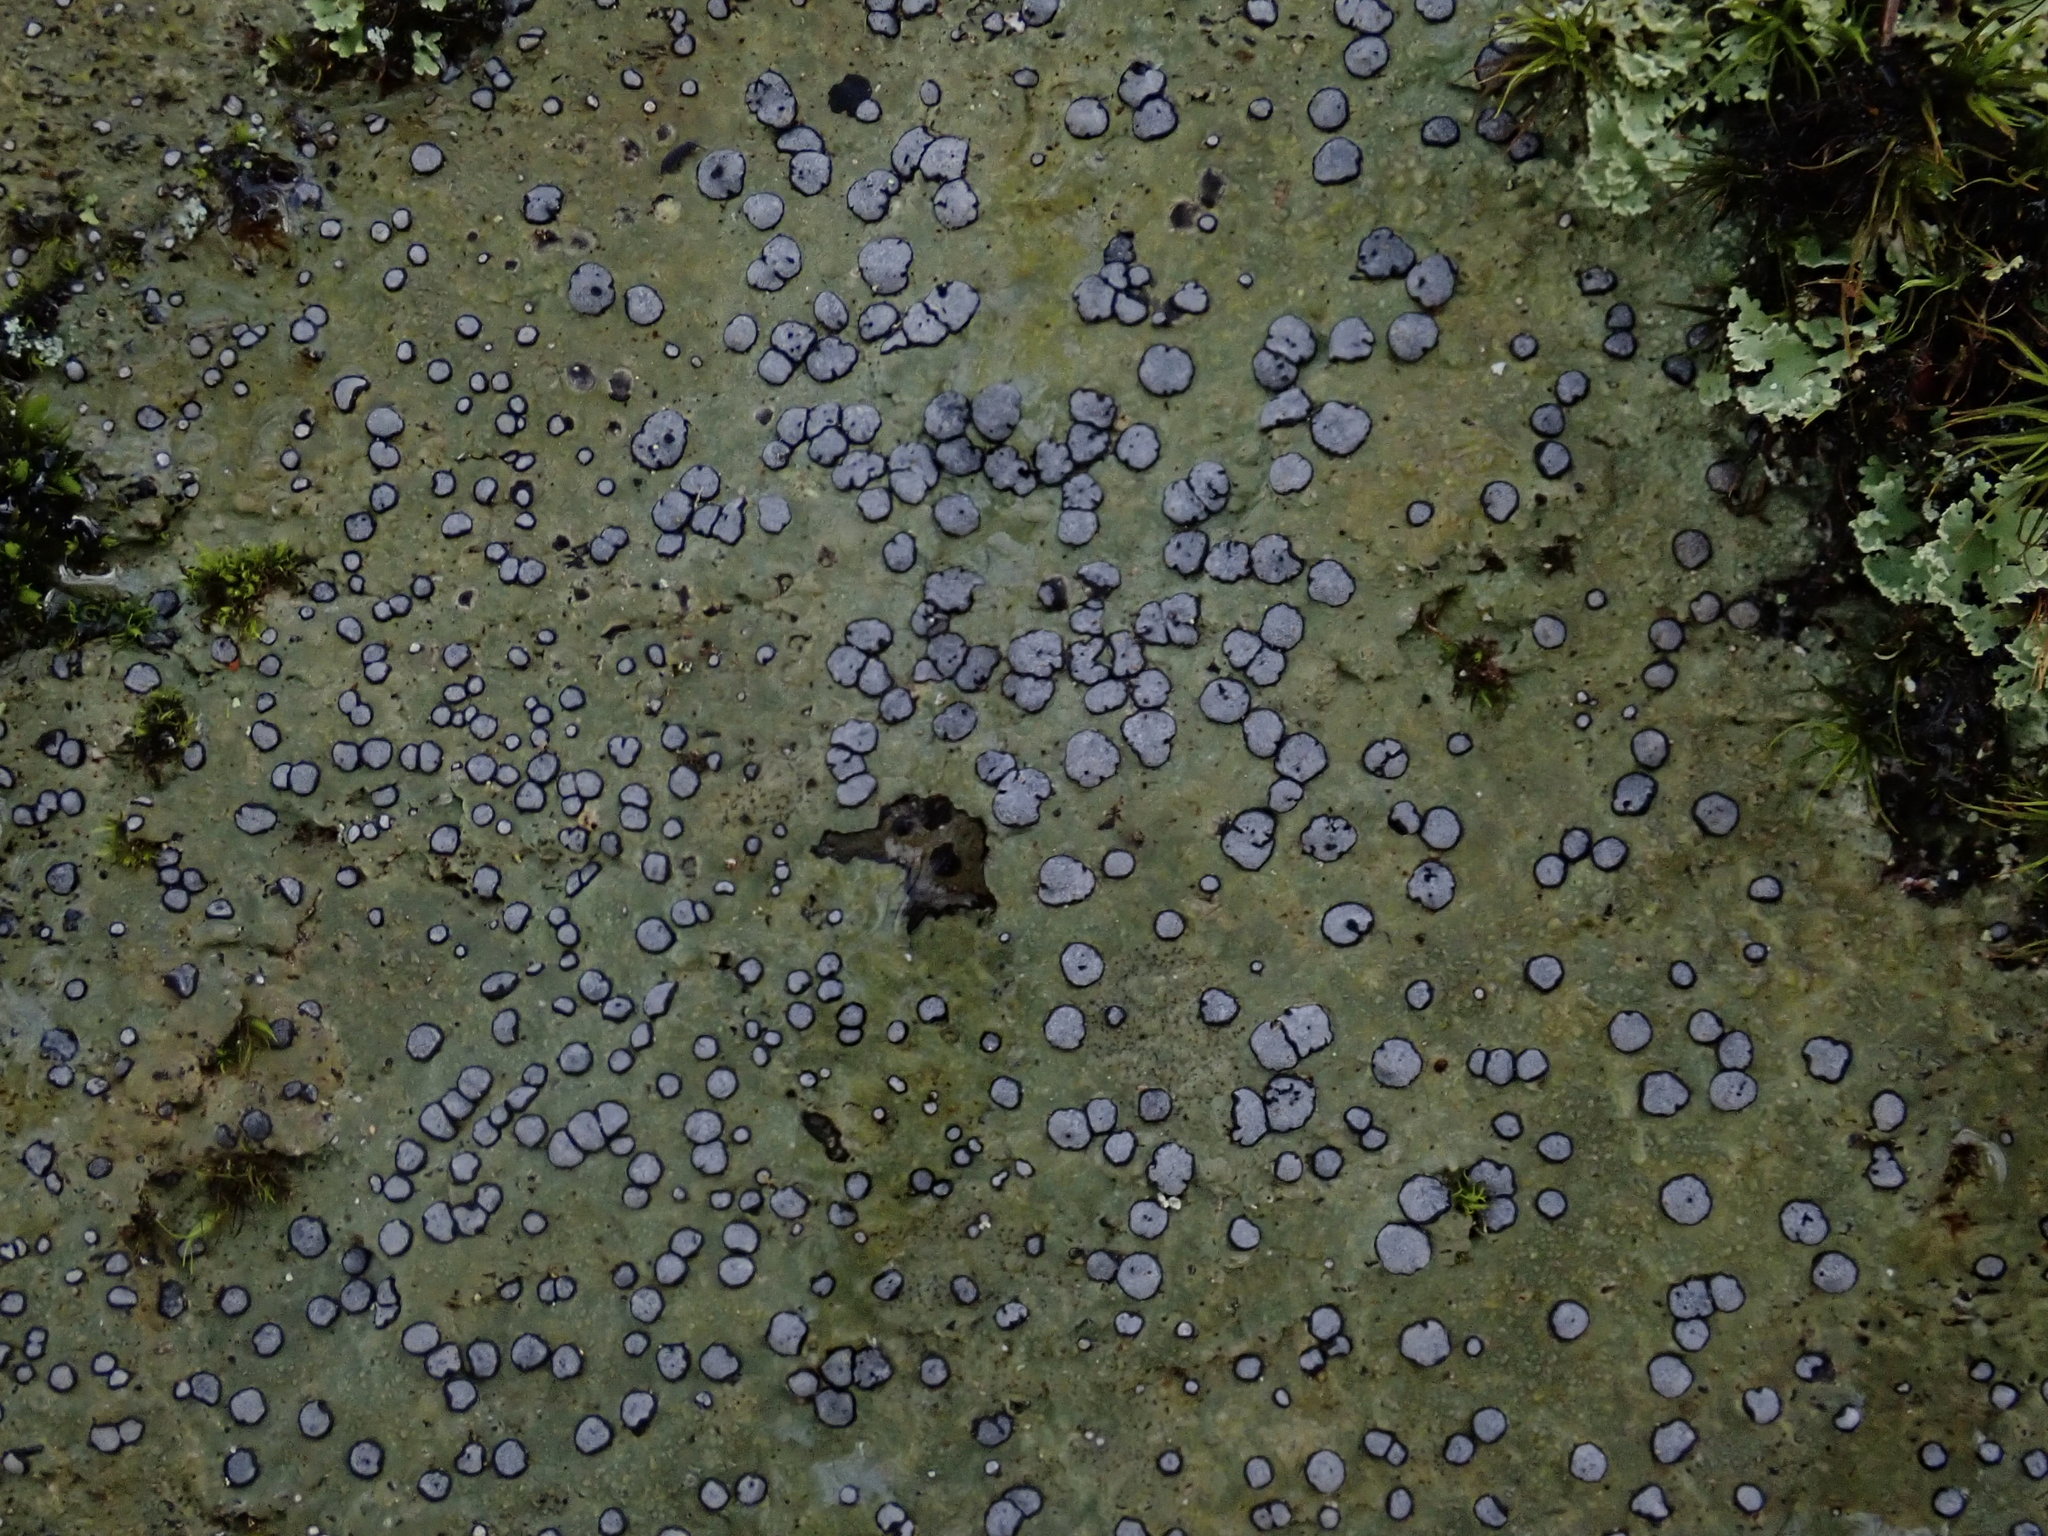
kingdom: Fungi
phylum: Ascomycota
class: Lecanoromycetes
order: Lecideales
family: Lecideaceae
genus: Porpidia
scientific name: Porpidia albocaerulescens
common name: Smokey-eyed boulder lichen
